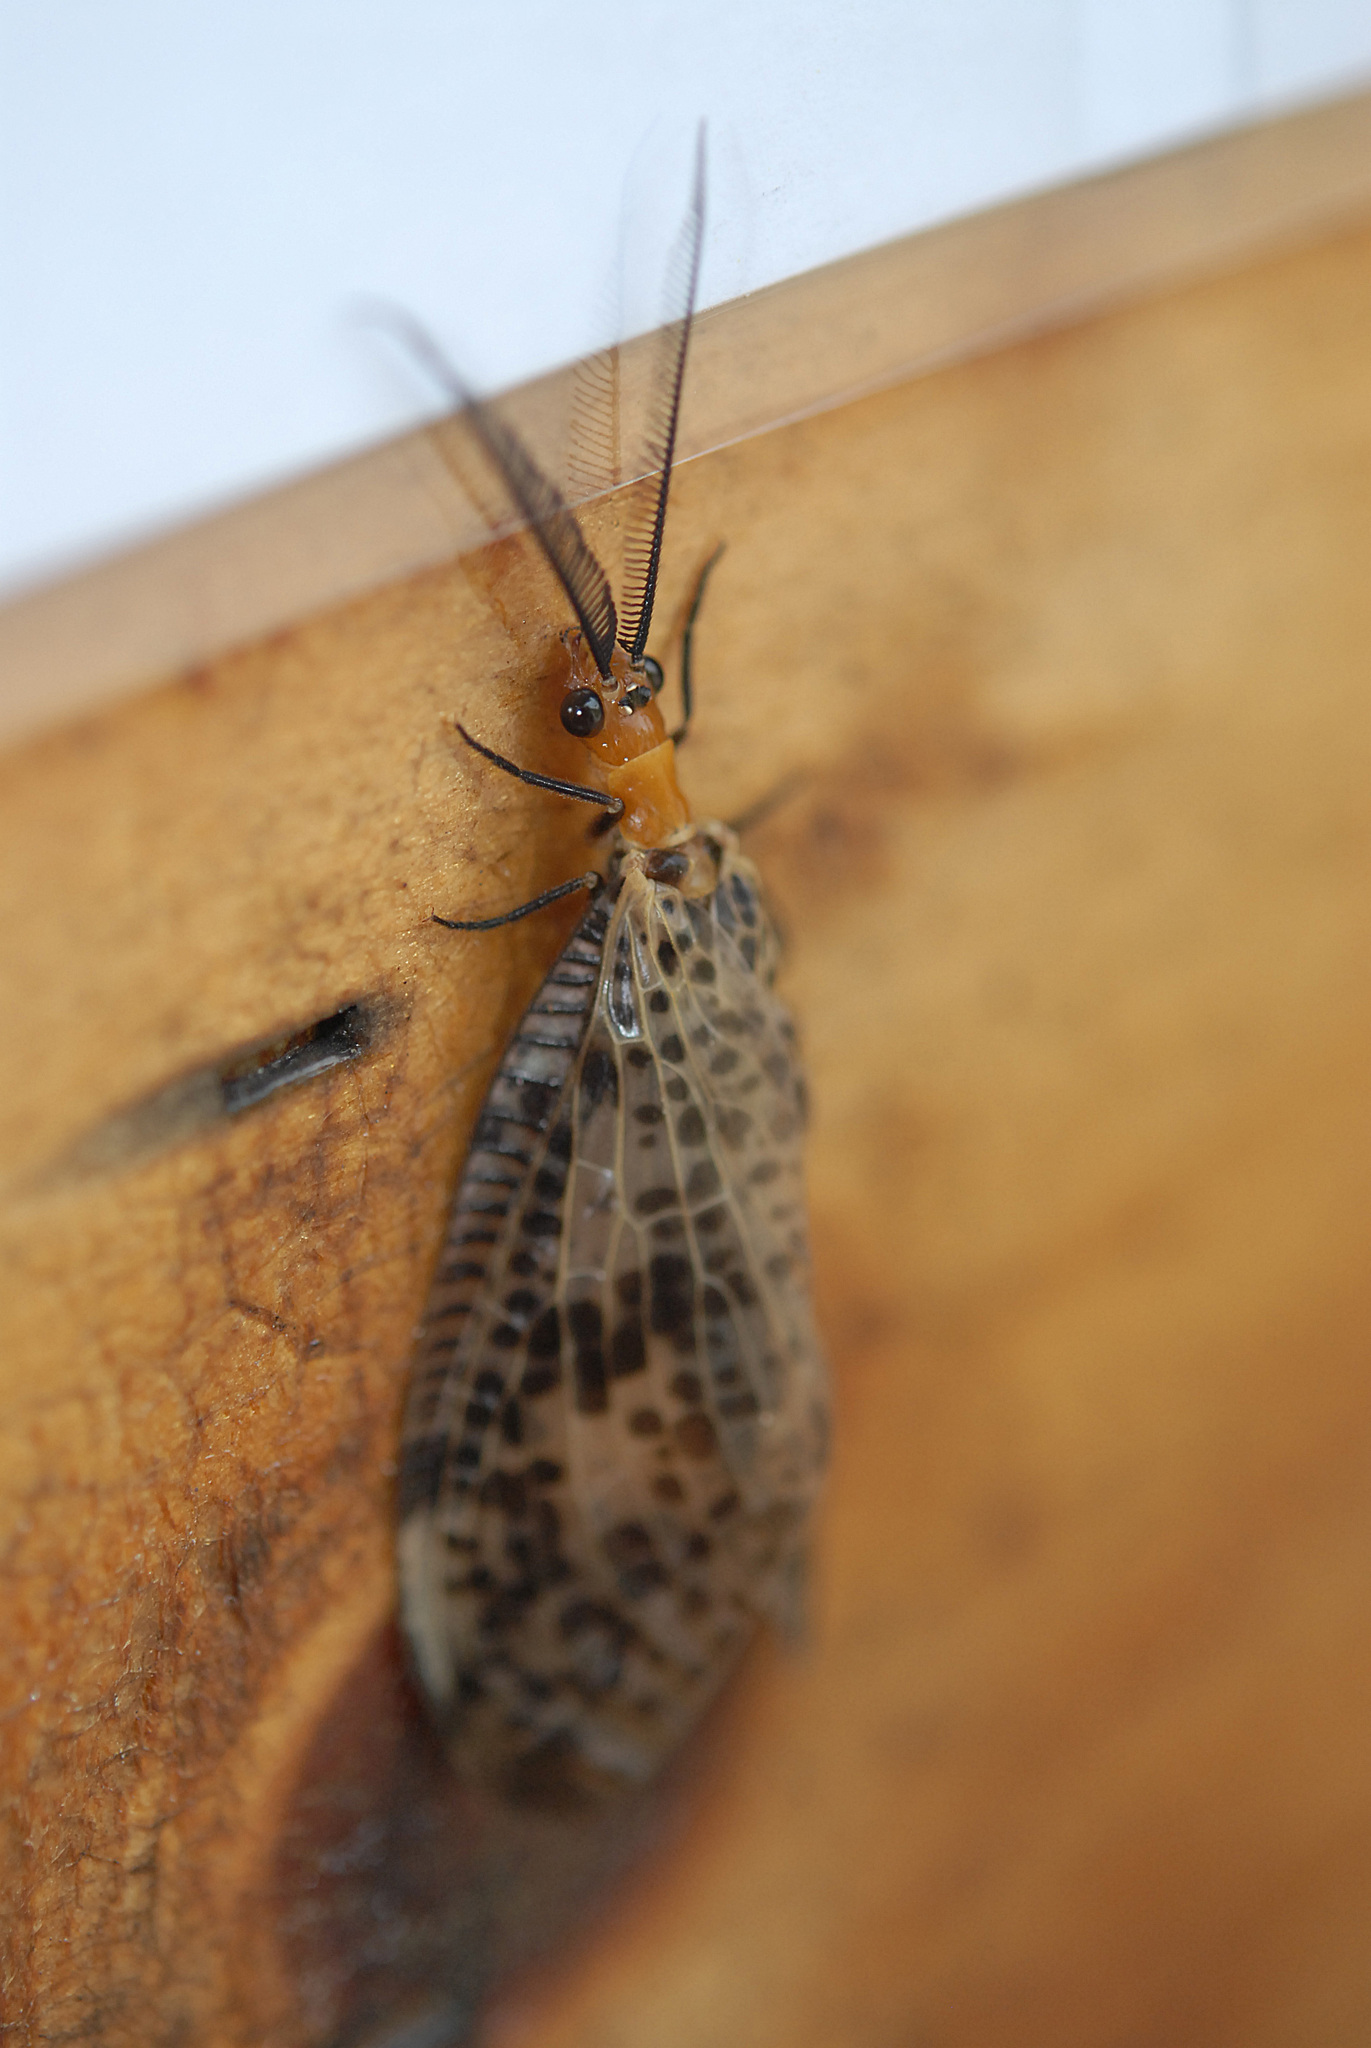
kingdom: Animalia
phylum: Arthropoda
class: Insecta
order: Megaloptera
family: Corydalidae
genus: Neochauliodes
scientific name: Neochauliodes formosanus
